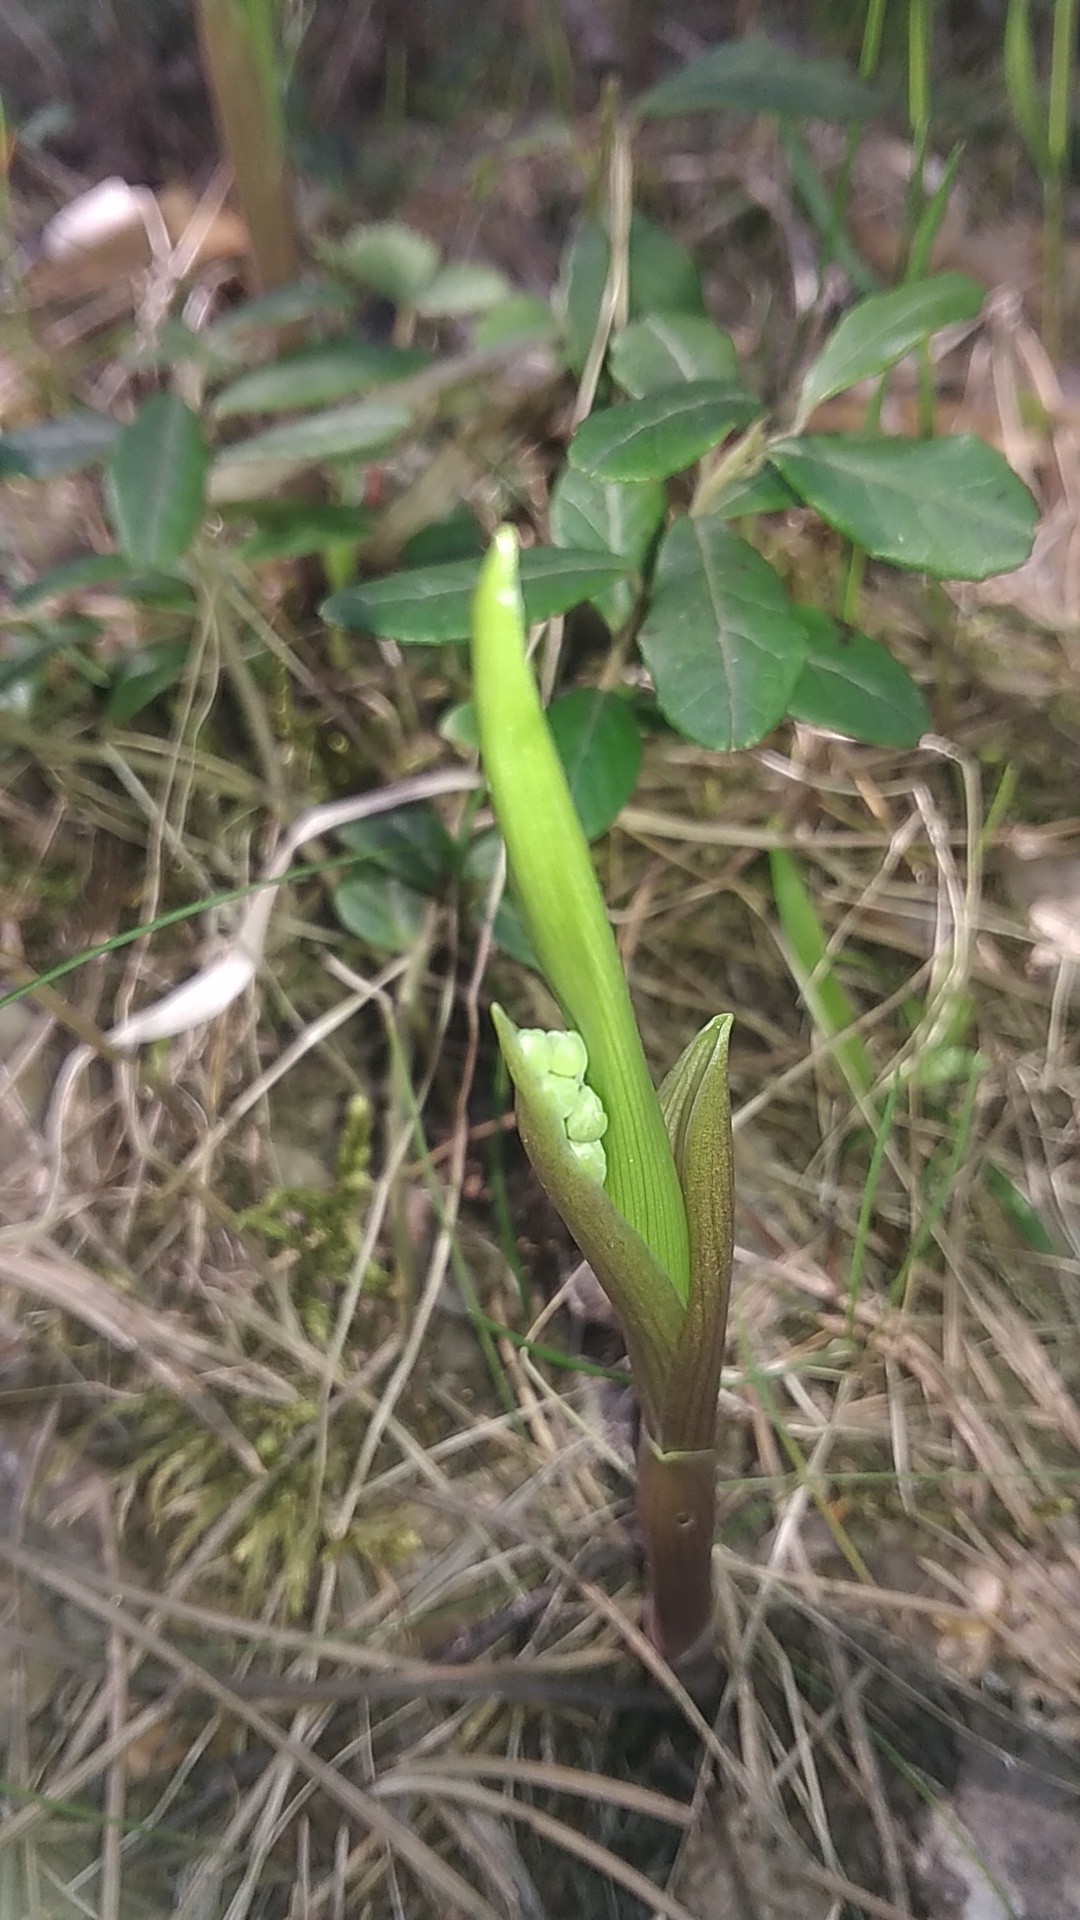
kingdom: Plantae
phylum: Tracheophyta
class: Liliopsida
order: Asparagales
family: Asparagaceae
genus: Convallaria
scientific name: Convallaria majalis
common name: Lily-of-the-valley
